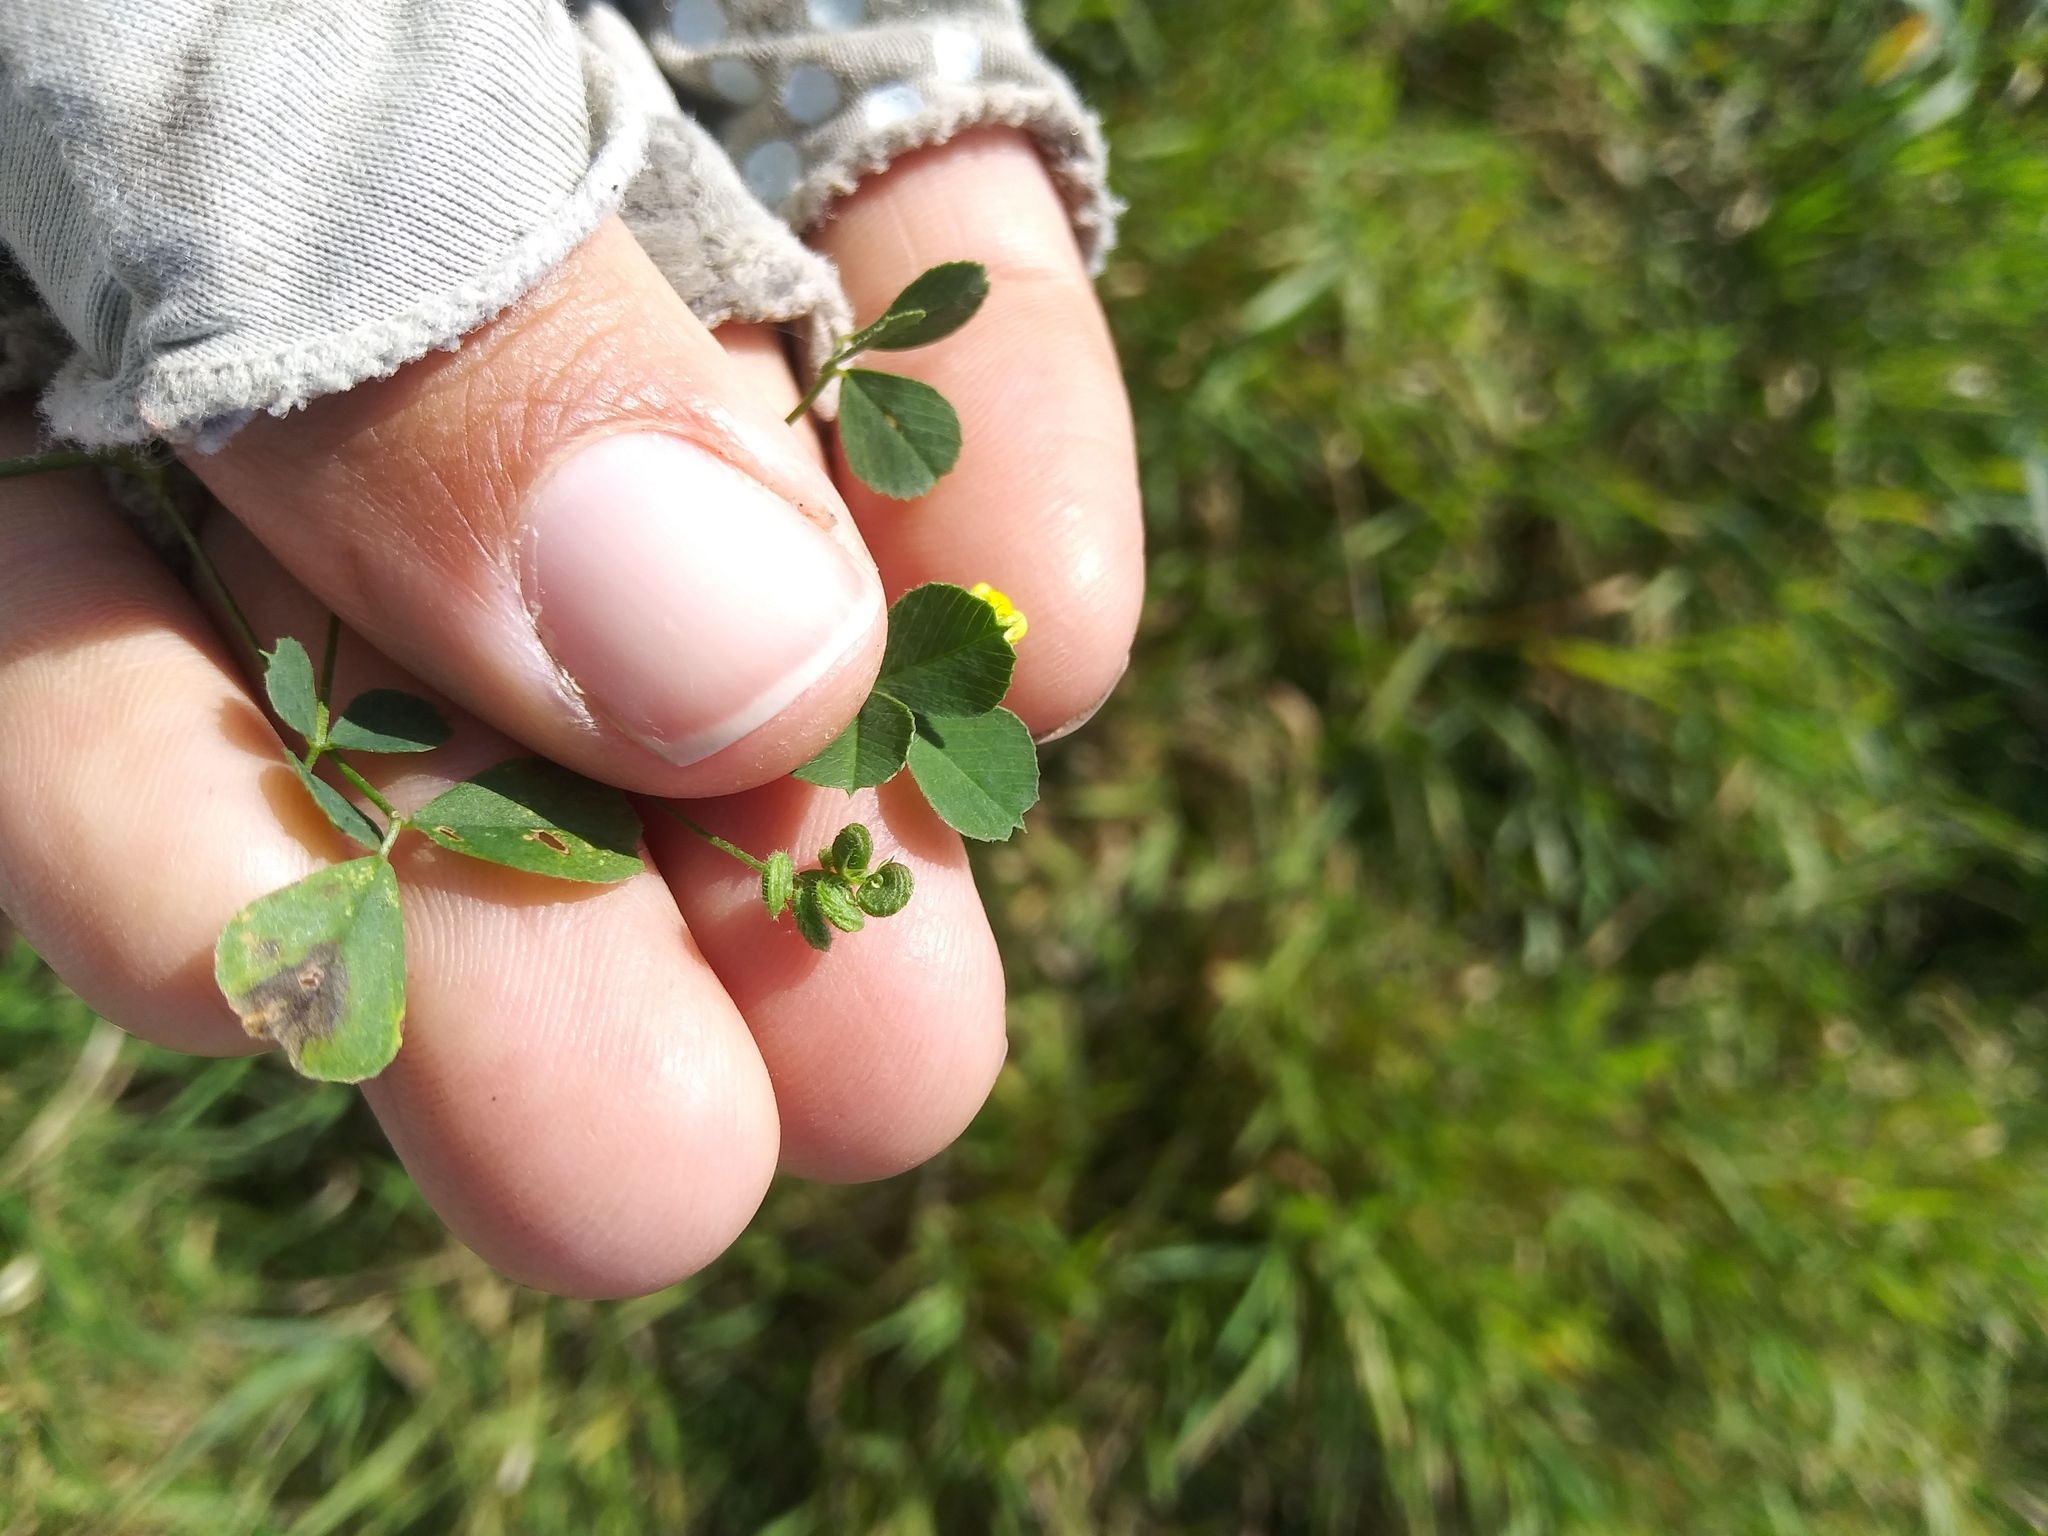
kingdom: Plantae
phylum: Tracheophyta
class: Magnoliopsida
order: Fabales
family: Fabaceae
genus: Medicago
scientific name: Medicago lupulina
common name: Black medick
